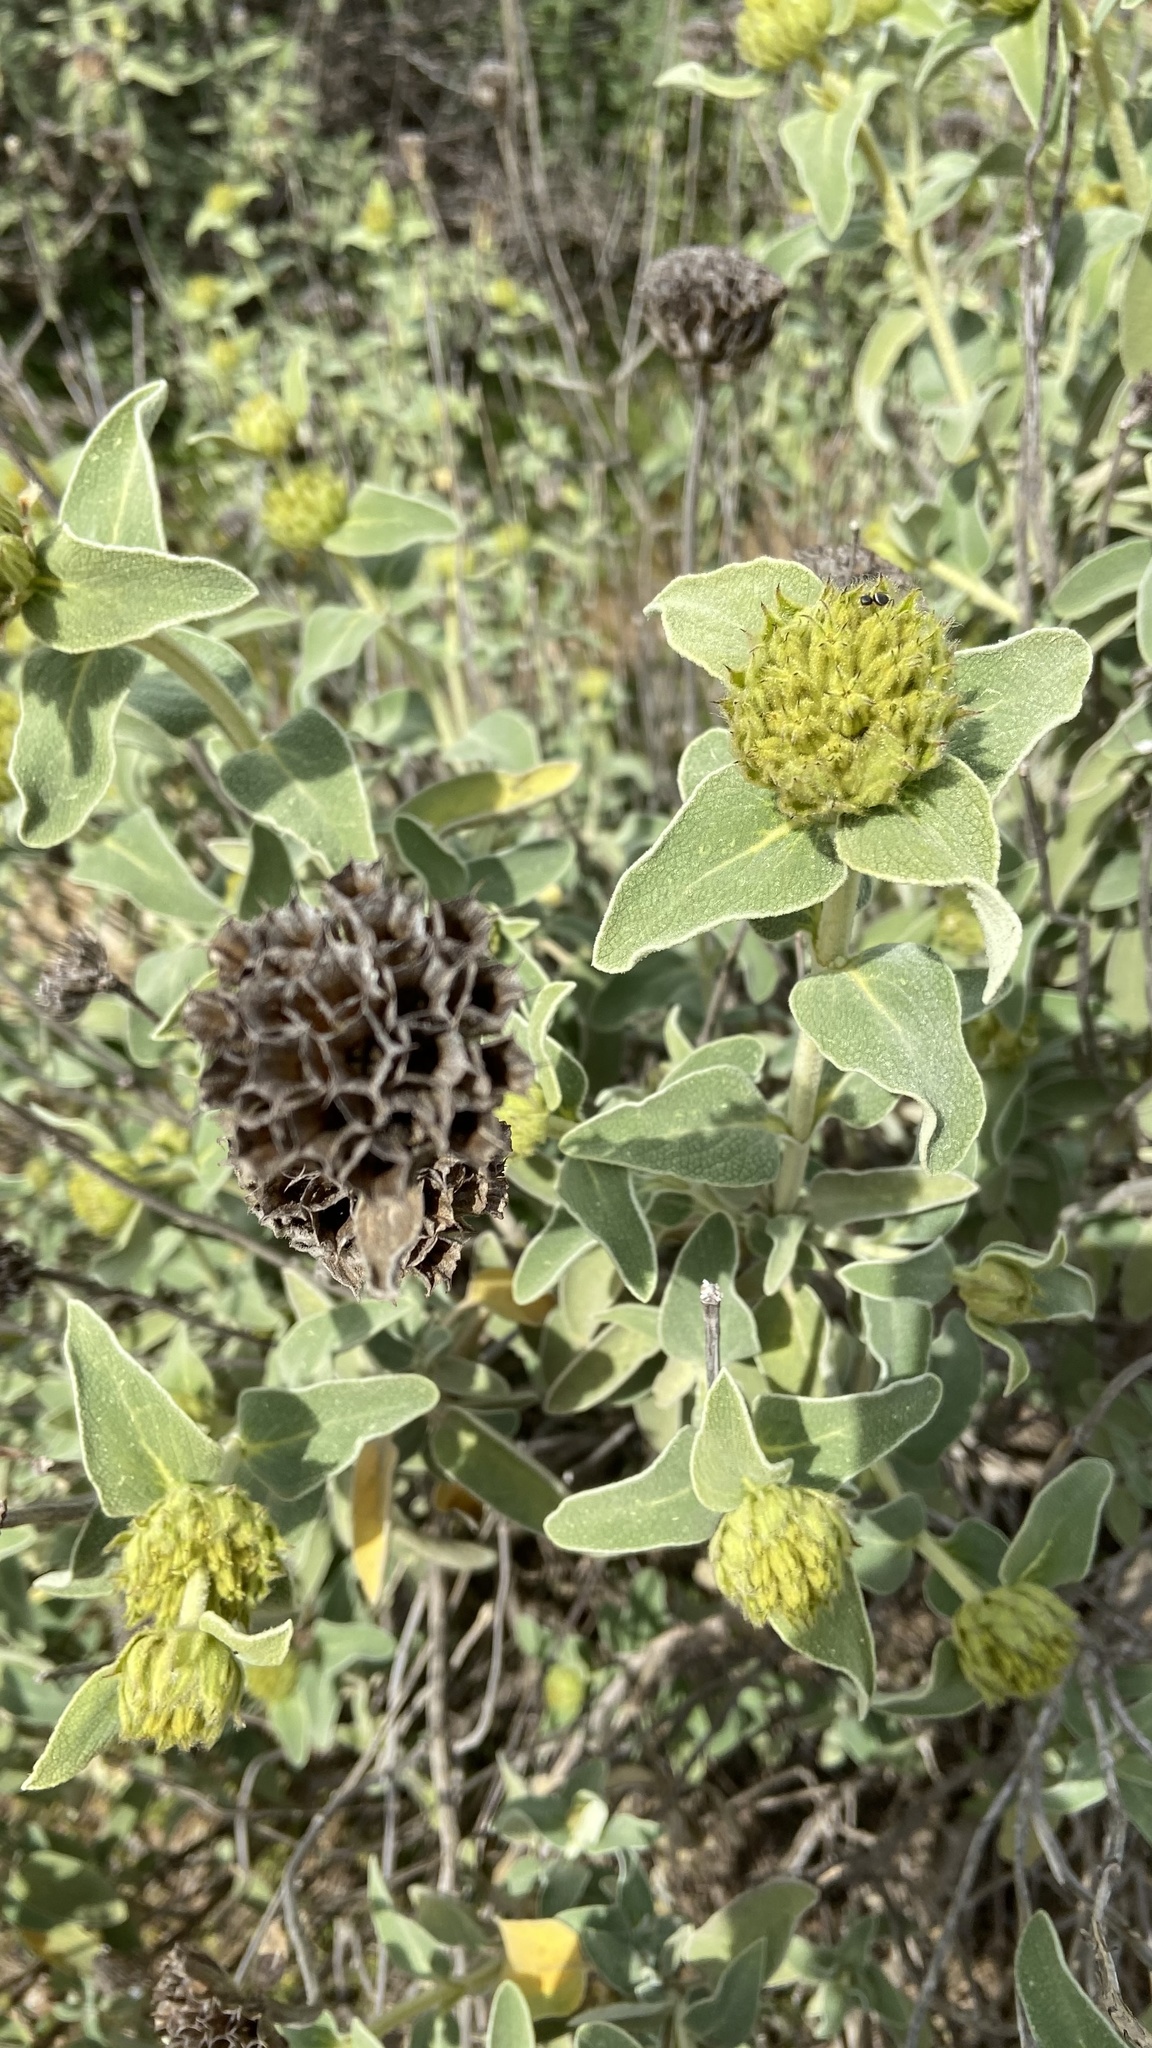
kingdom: Plantae
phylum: Tracheophyta
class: Magnoliopsida
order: Lamiales
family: Lamiaceae
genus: Phlomis
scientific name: Phlomis fruticosa
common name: Jerusalem sage
